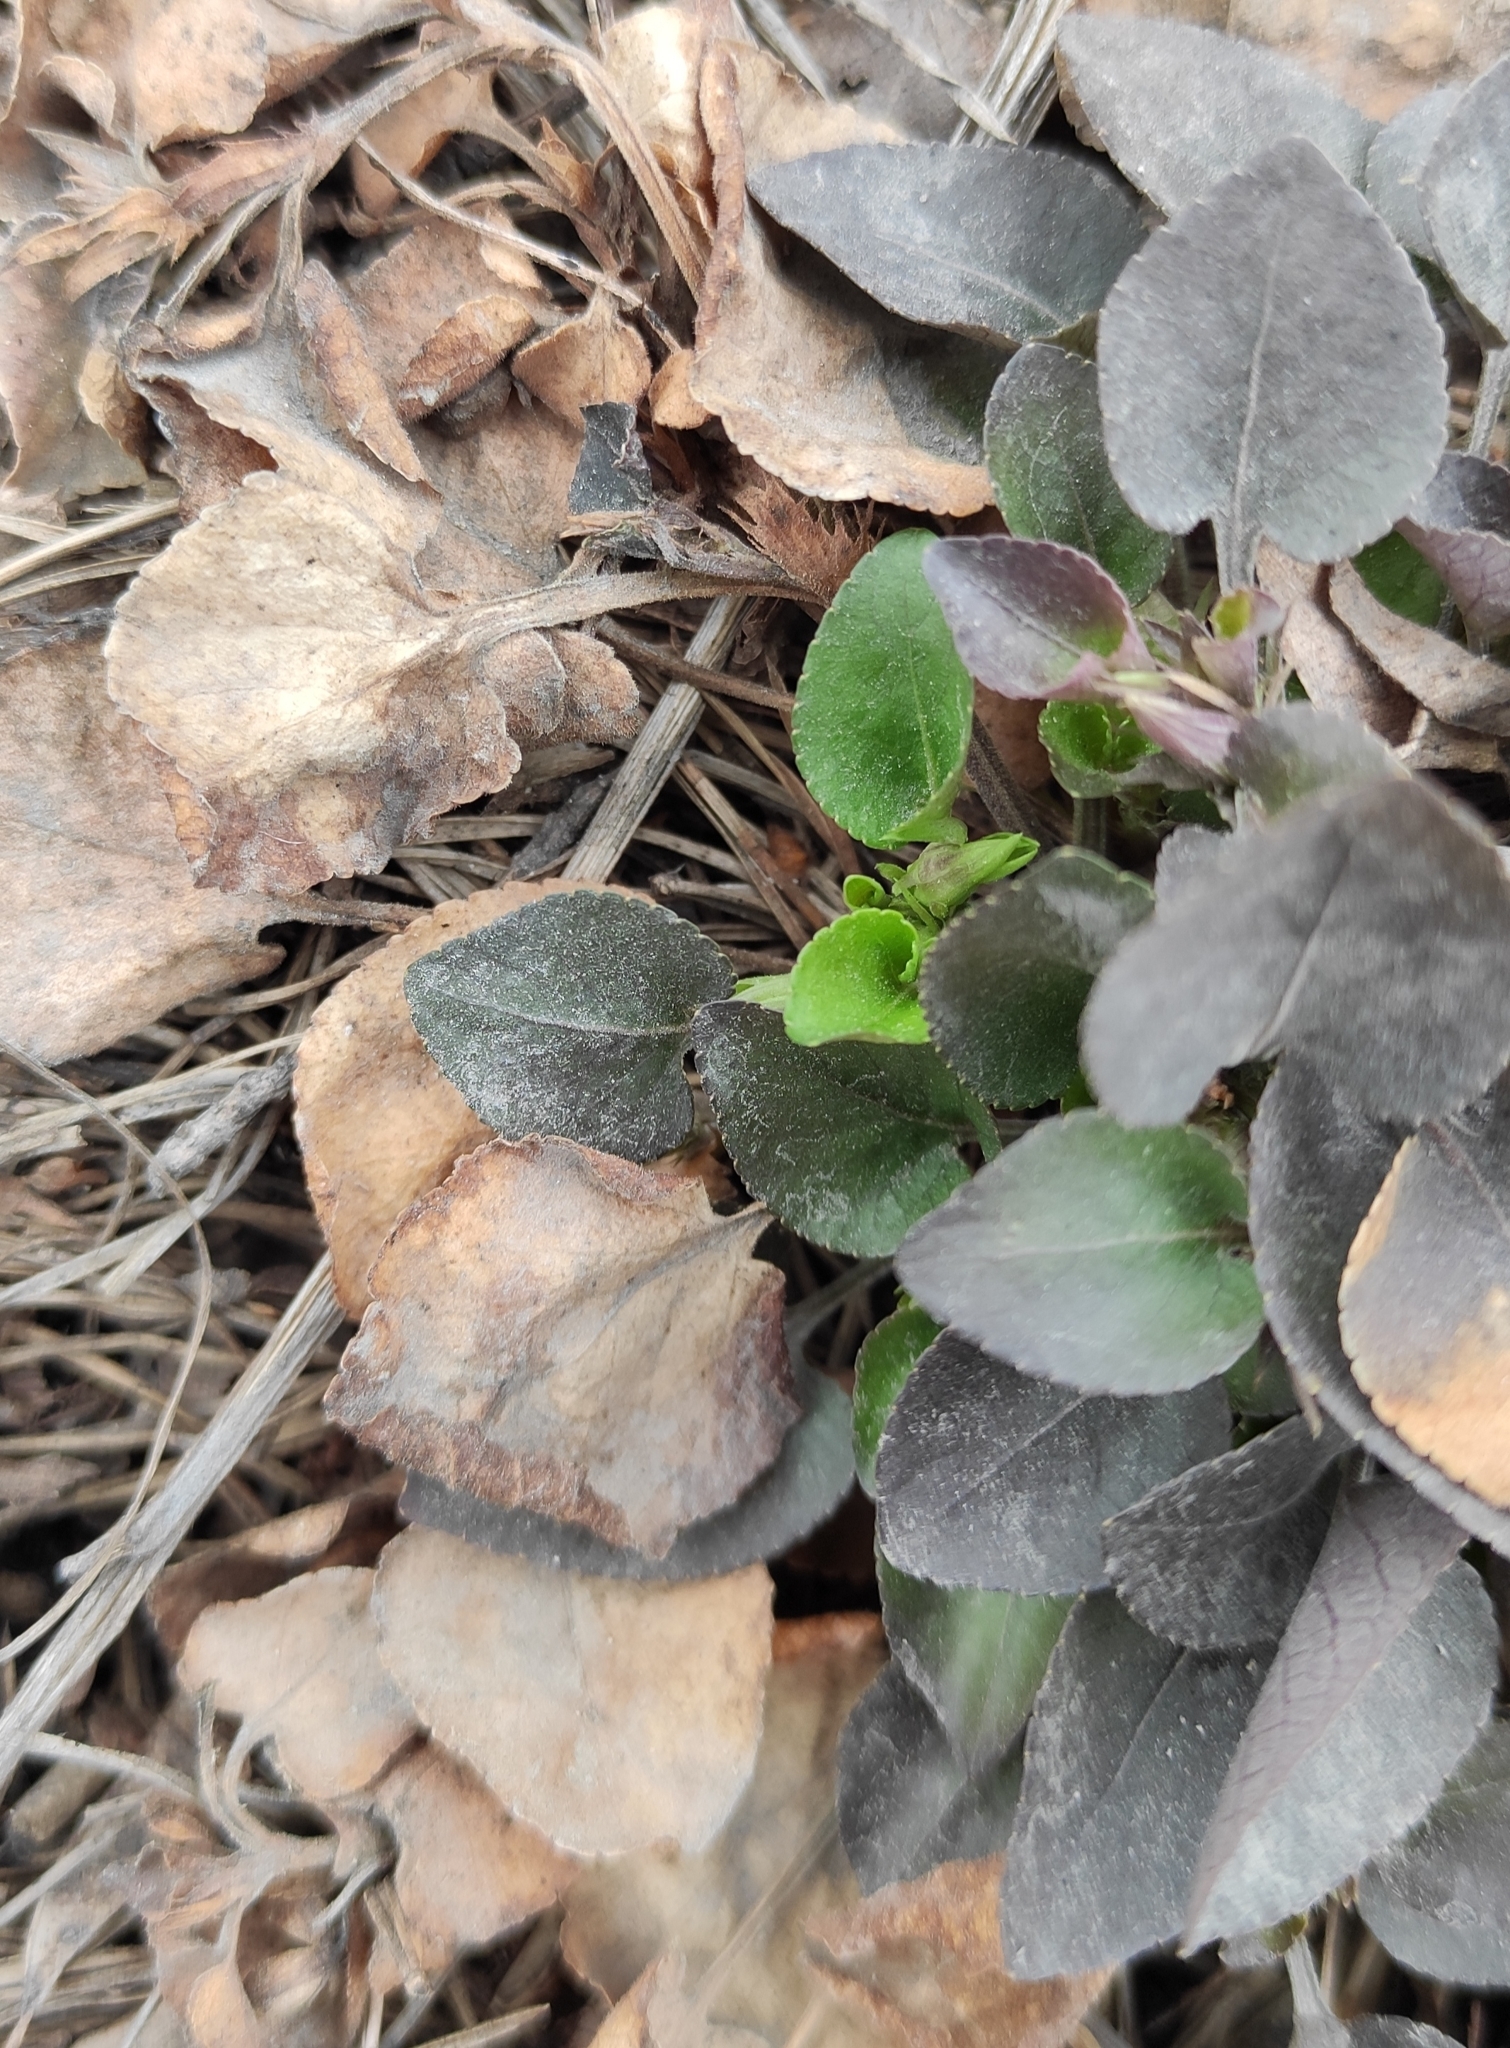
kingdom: Plantae
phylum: Tracheophyta
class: Magnoliopsida
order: Malpighiales
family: Violaceae
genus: Viola
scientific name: Viola rupestris
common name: Teesdale violet
